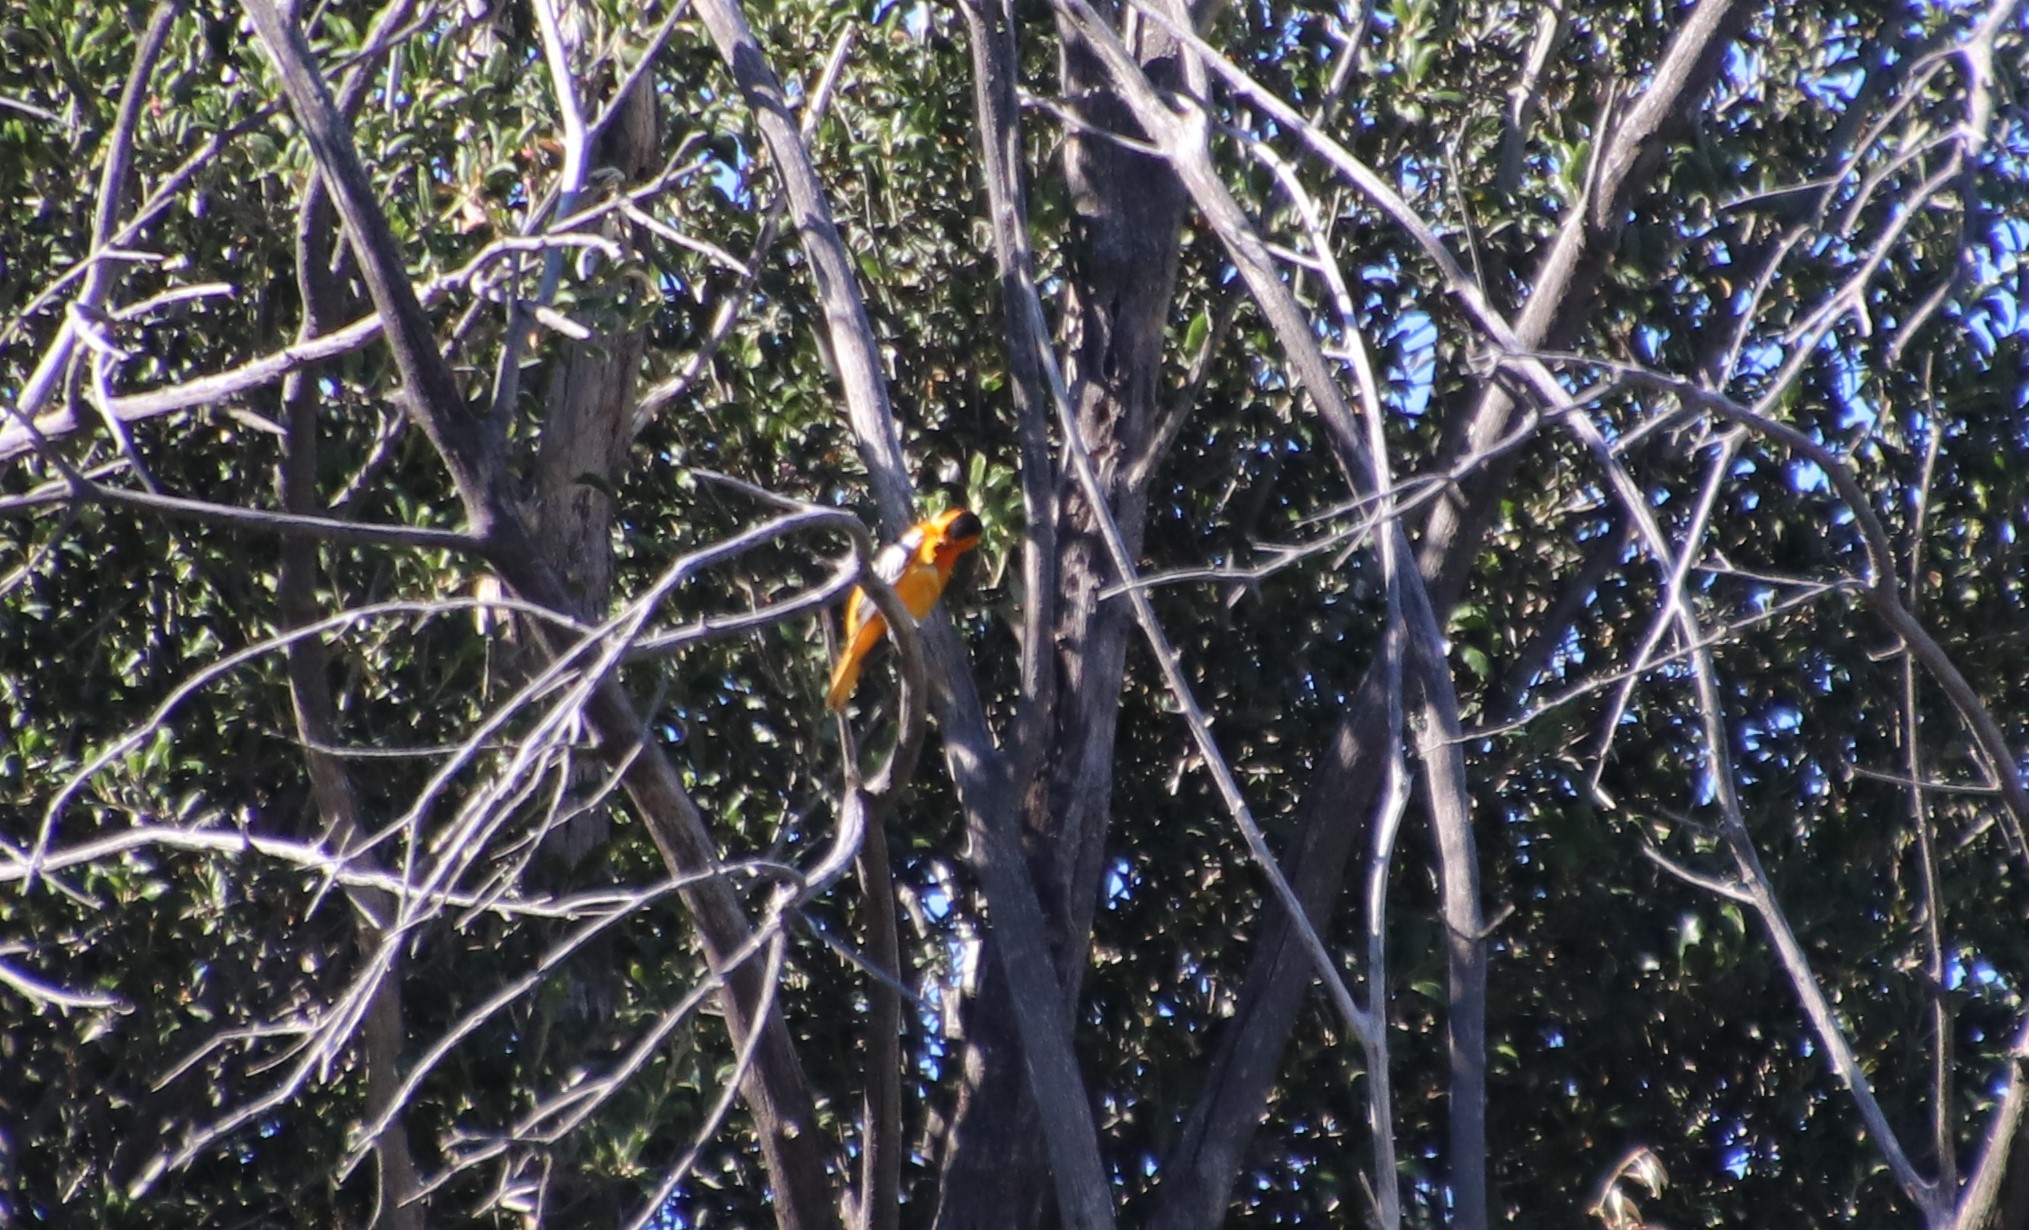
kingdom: Animalia
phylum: Chordata
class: Aves
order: Passeriformes
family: Icteridae
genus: Icterus
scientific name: Icterus bullockii
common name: Bullock's oriole
